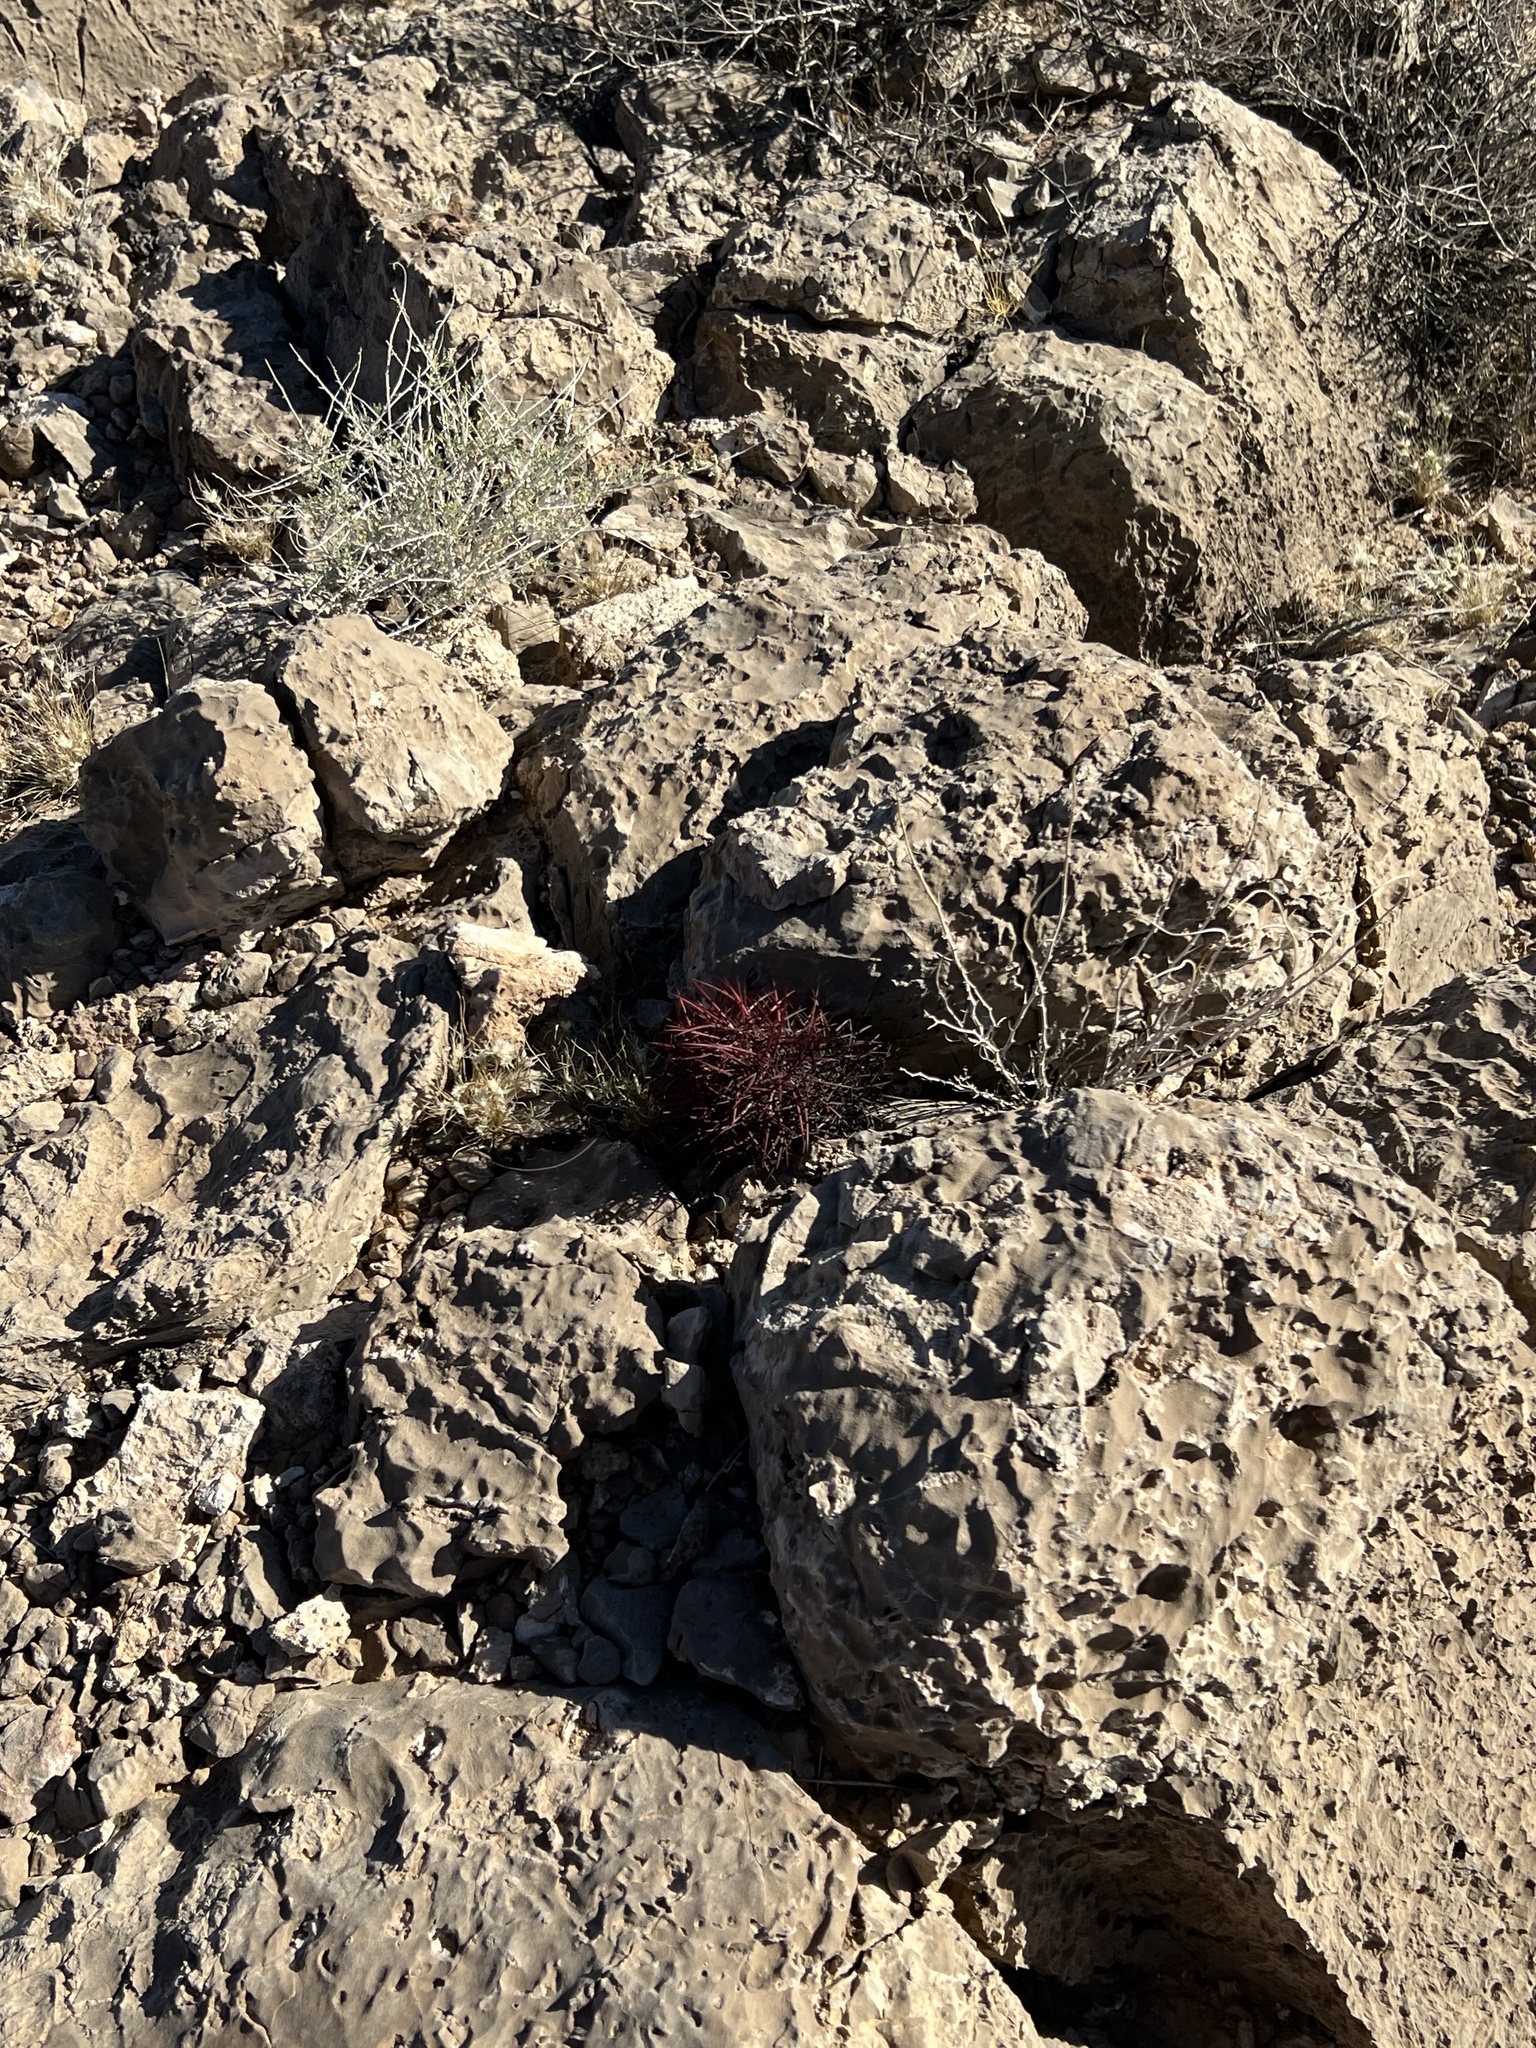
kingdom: Plantae
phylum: Tracheophyta
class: Magnoliopsida
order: Caryophyllales
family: Cactaceae
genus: Sclerocactus
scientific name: Sclerocactus johnsonii
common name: Eight-spine fishhook cactus
